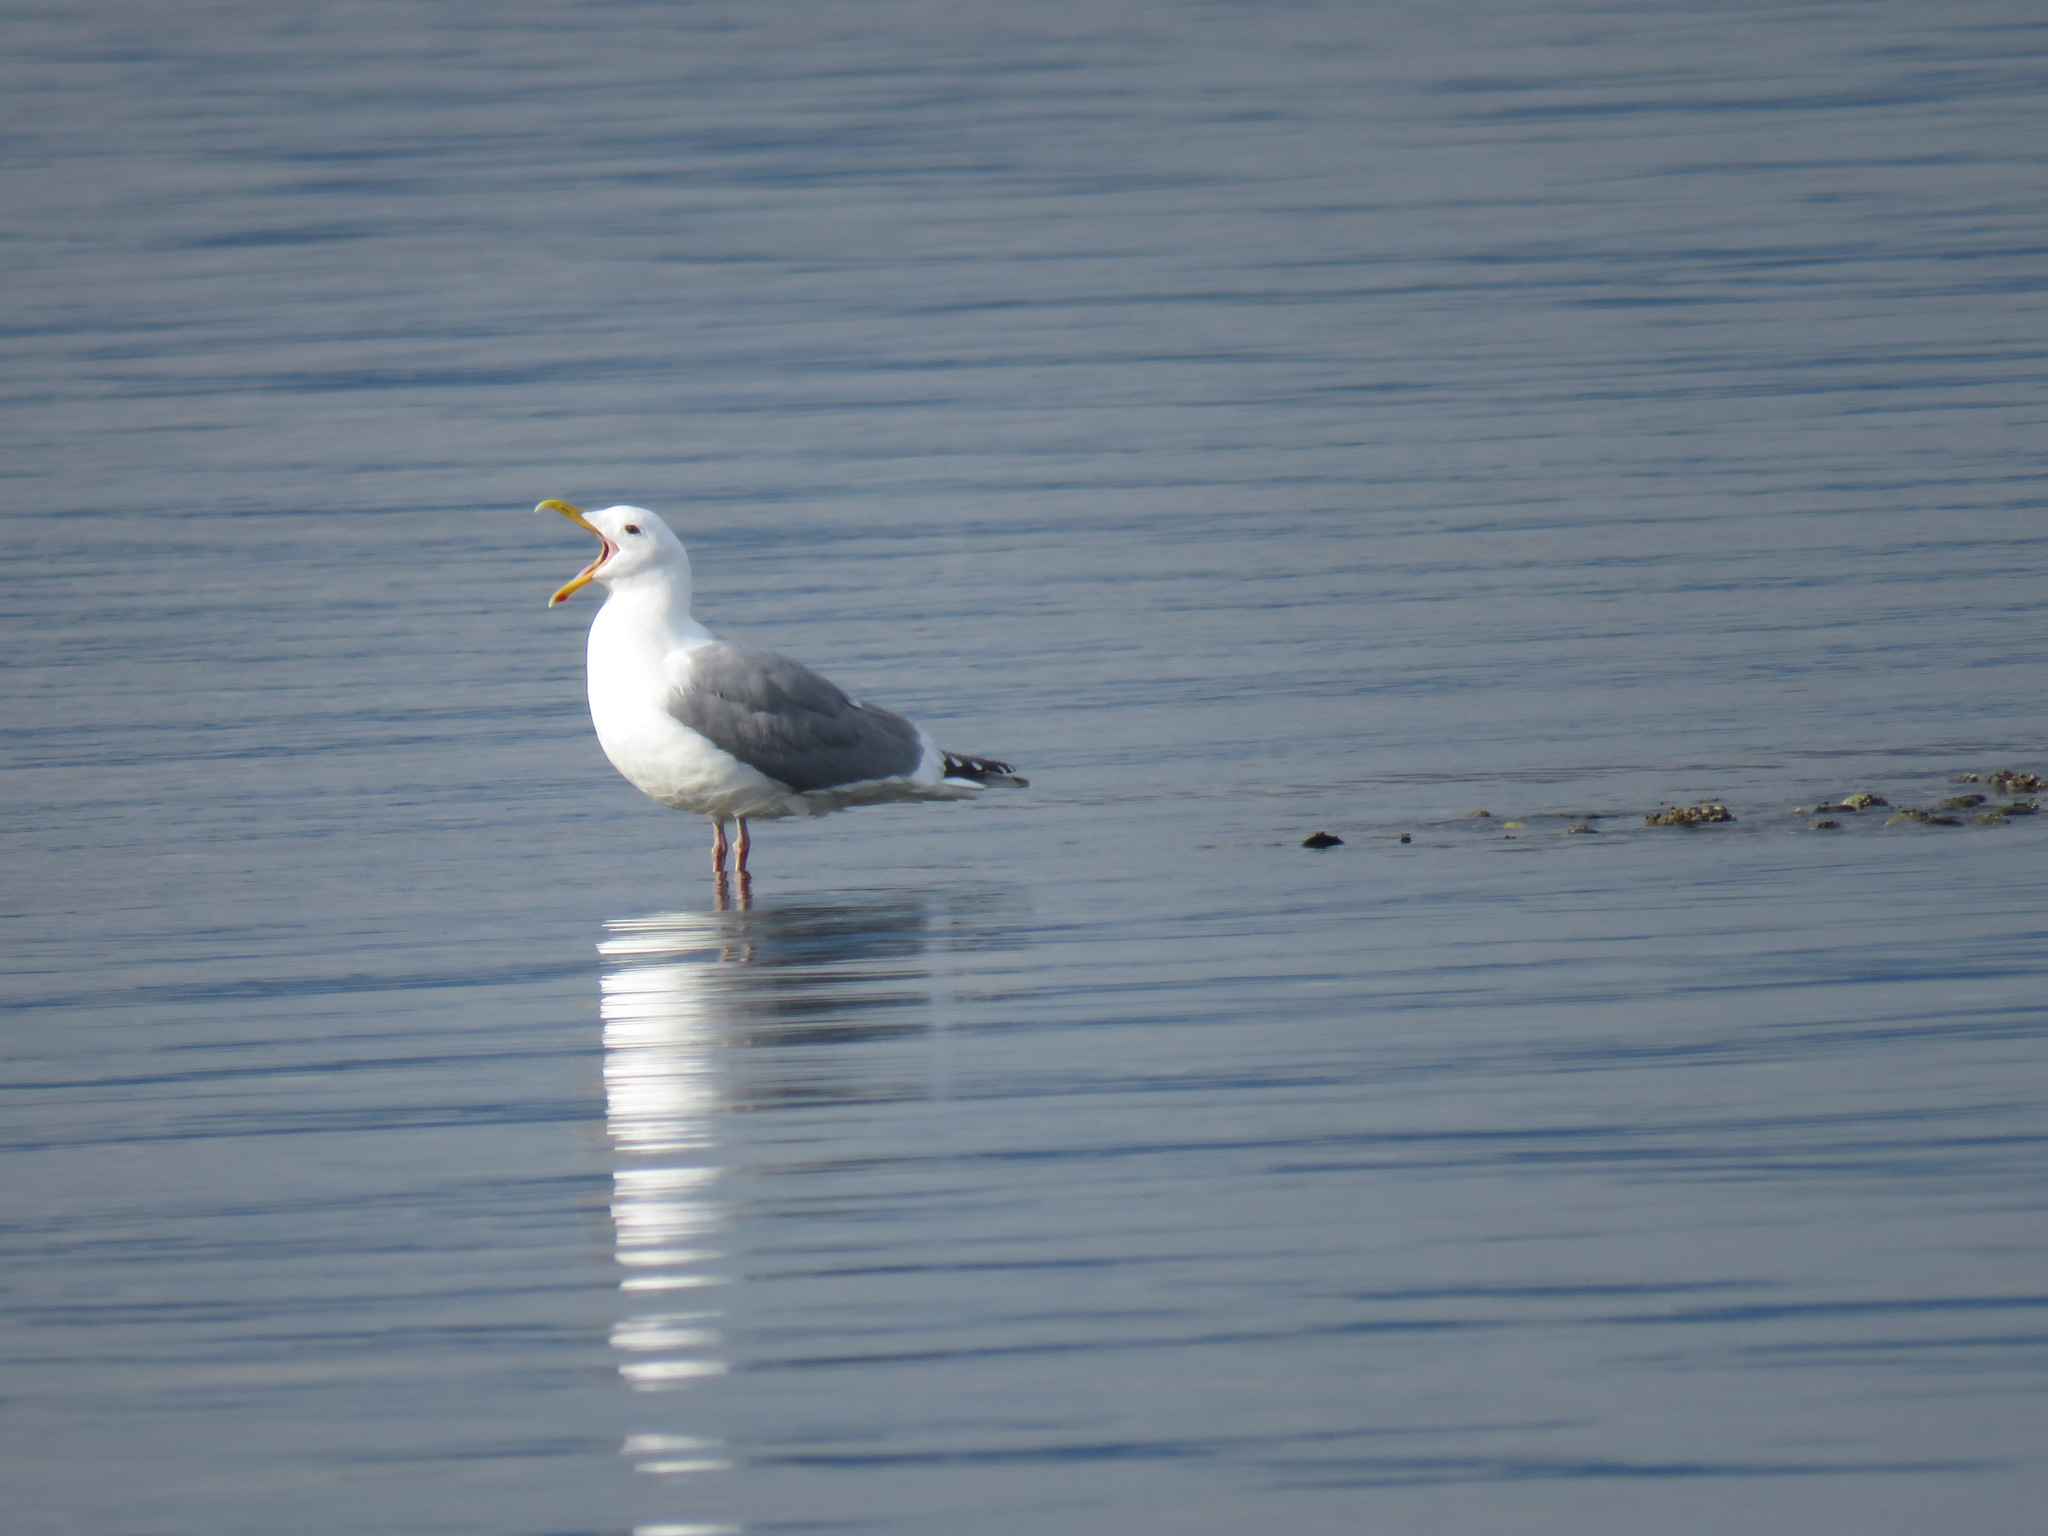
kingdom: Animalia
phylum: Chordata
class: Aves
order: Charadriiformes
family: Laridae
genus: Larus
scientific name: Larus
